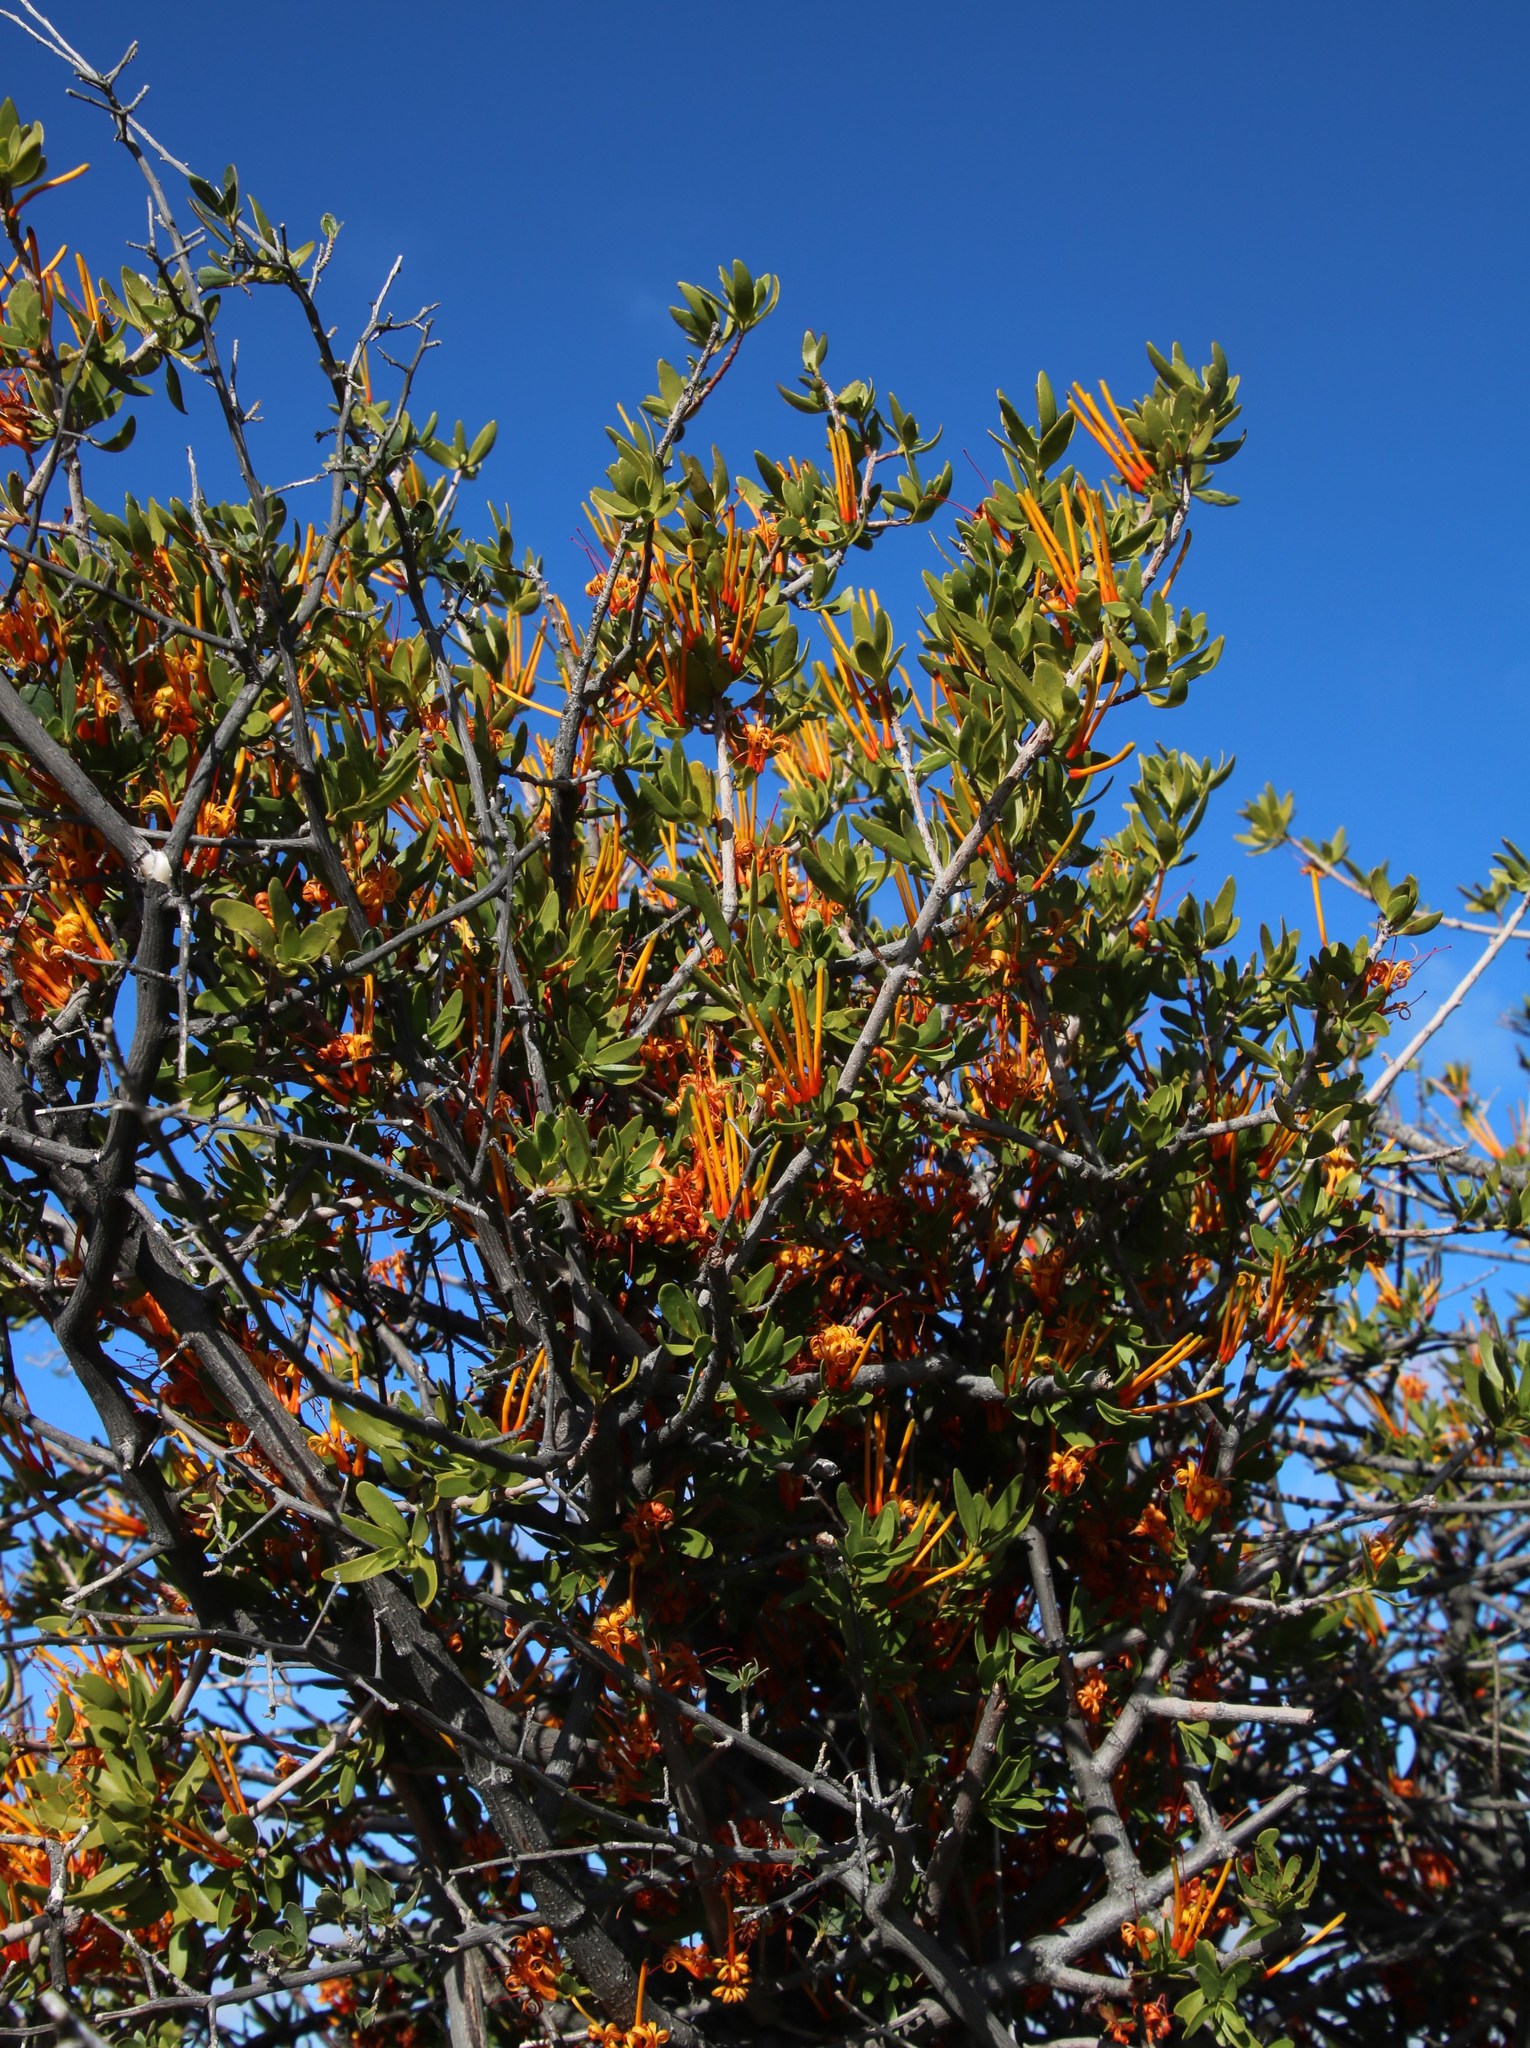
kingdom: Plantae
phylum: Tracheophyta
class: Magnoliopsida
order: Ericales
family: Ebenaceae
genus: Diospyros
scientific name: Diospyros lycioides
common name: Red star apple
